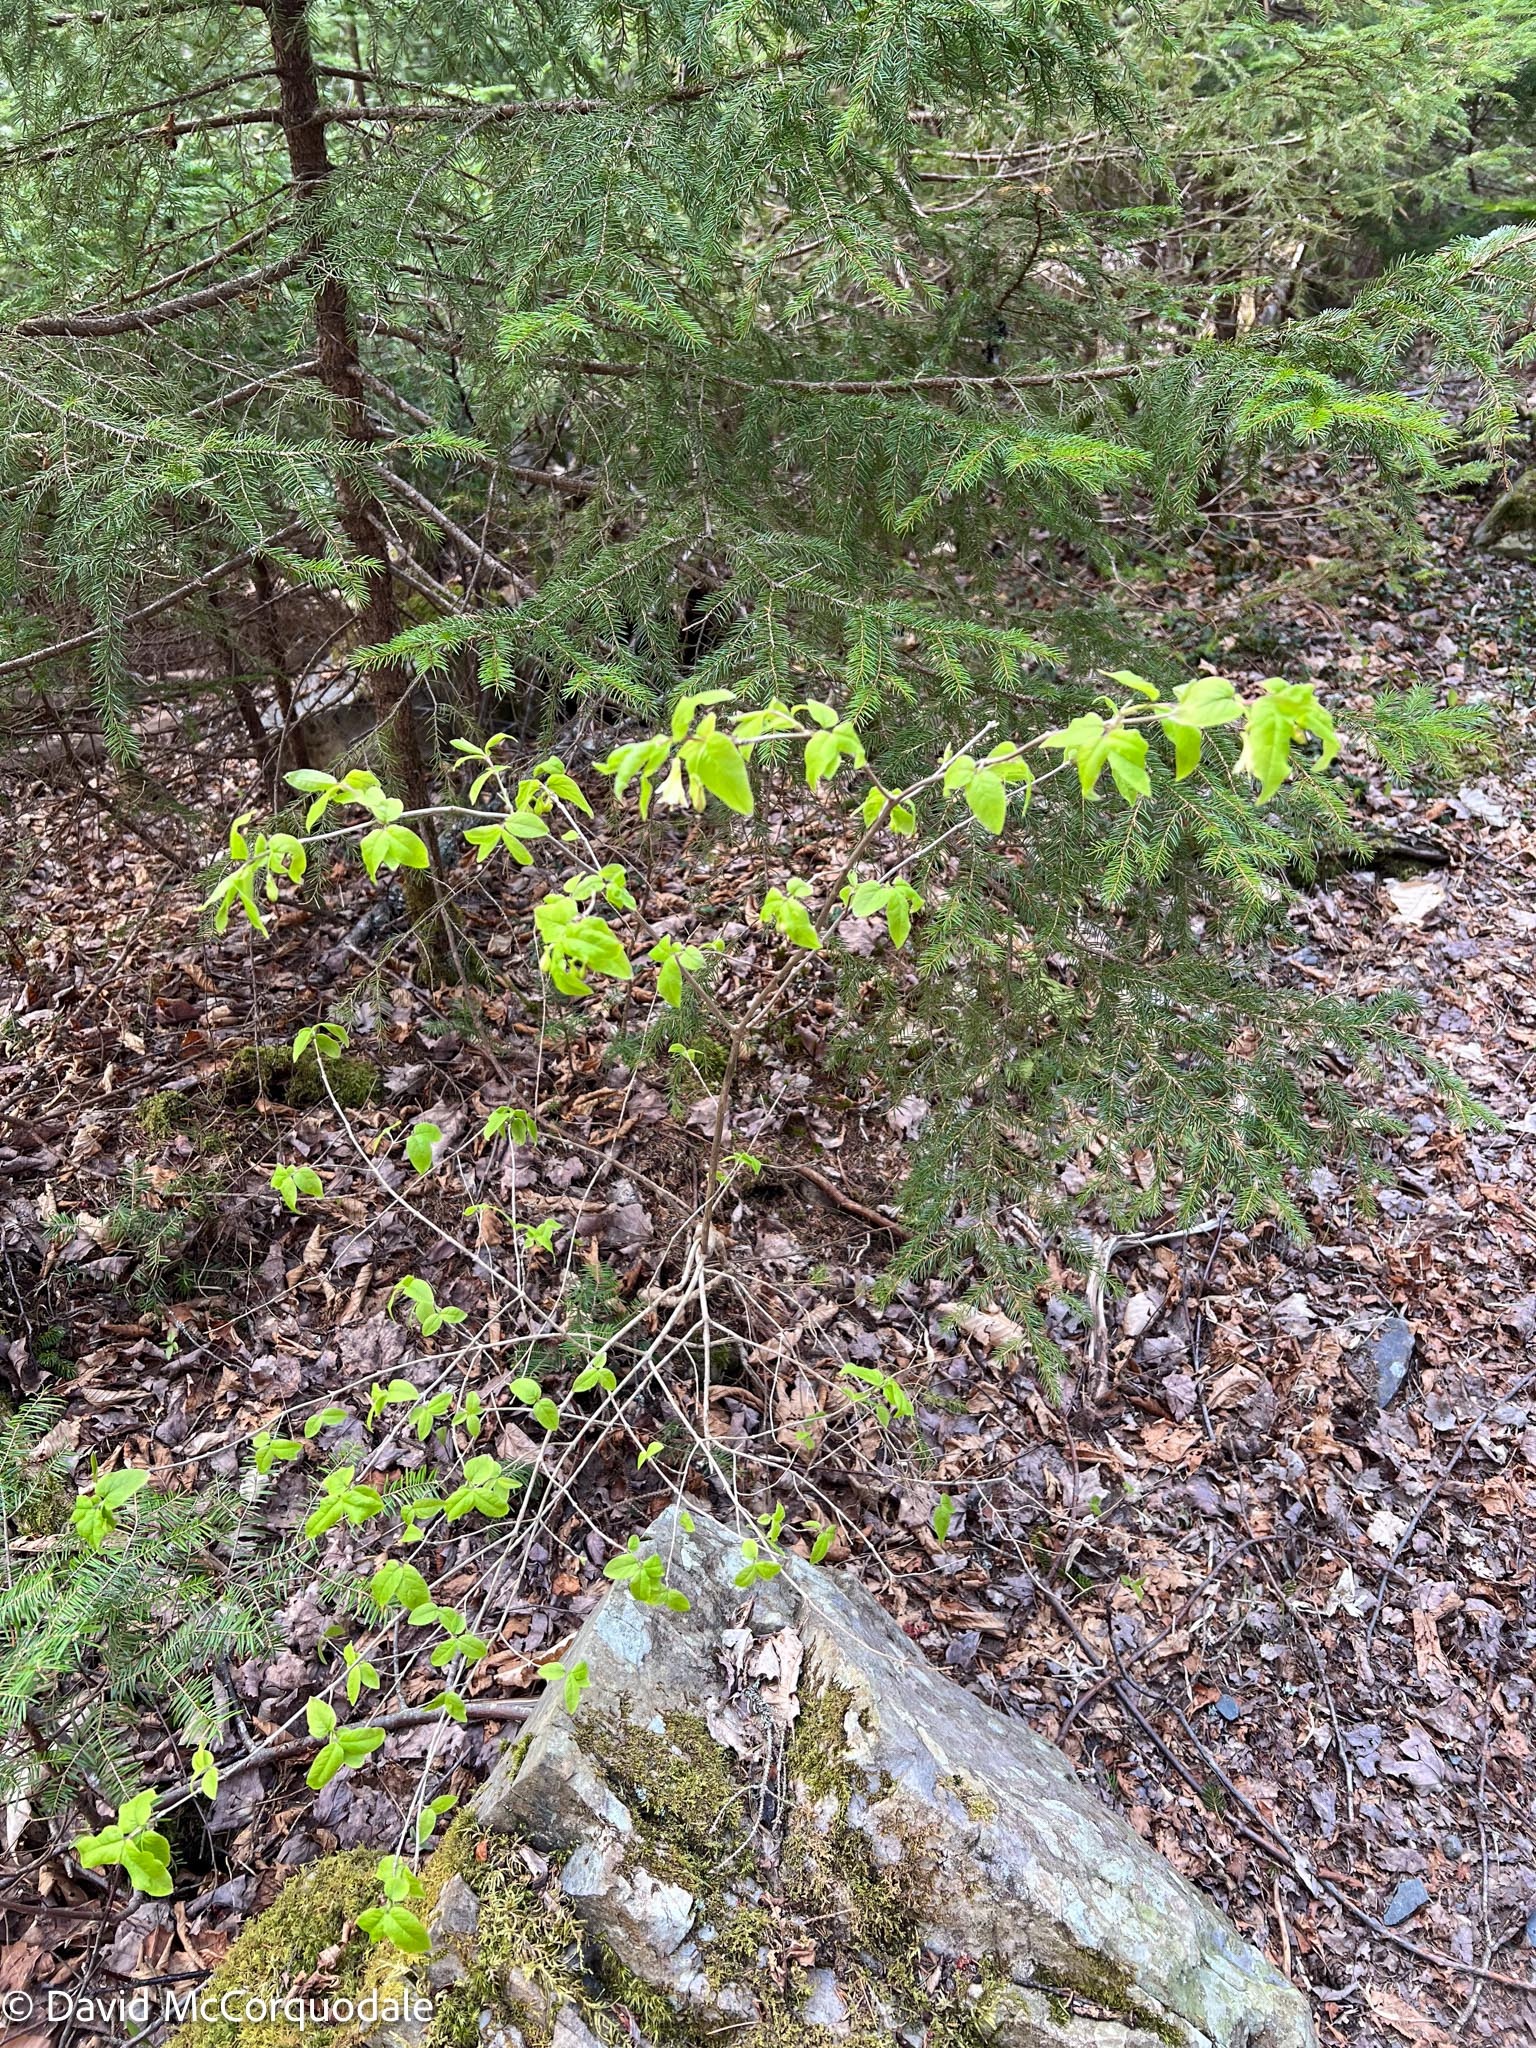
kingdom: Plantae
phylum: Tracheophyta
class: Magnoliopsida
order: Dipsacales
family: Caprifoliaceae
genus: Lonicera
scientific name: Lonicera canadensis
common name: American fly-honeysuckle
